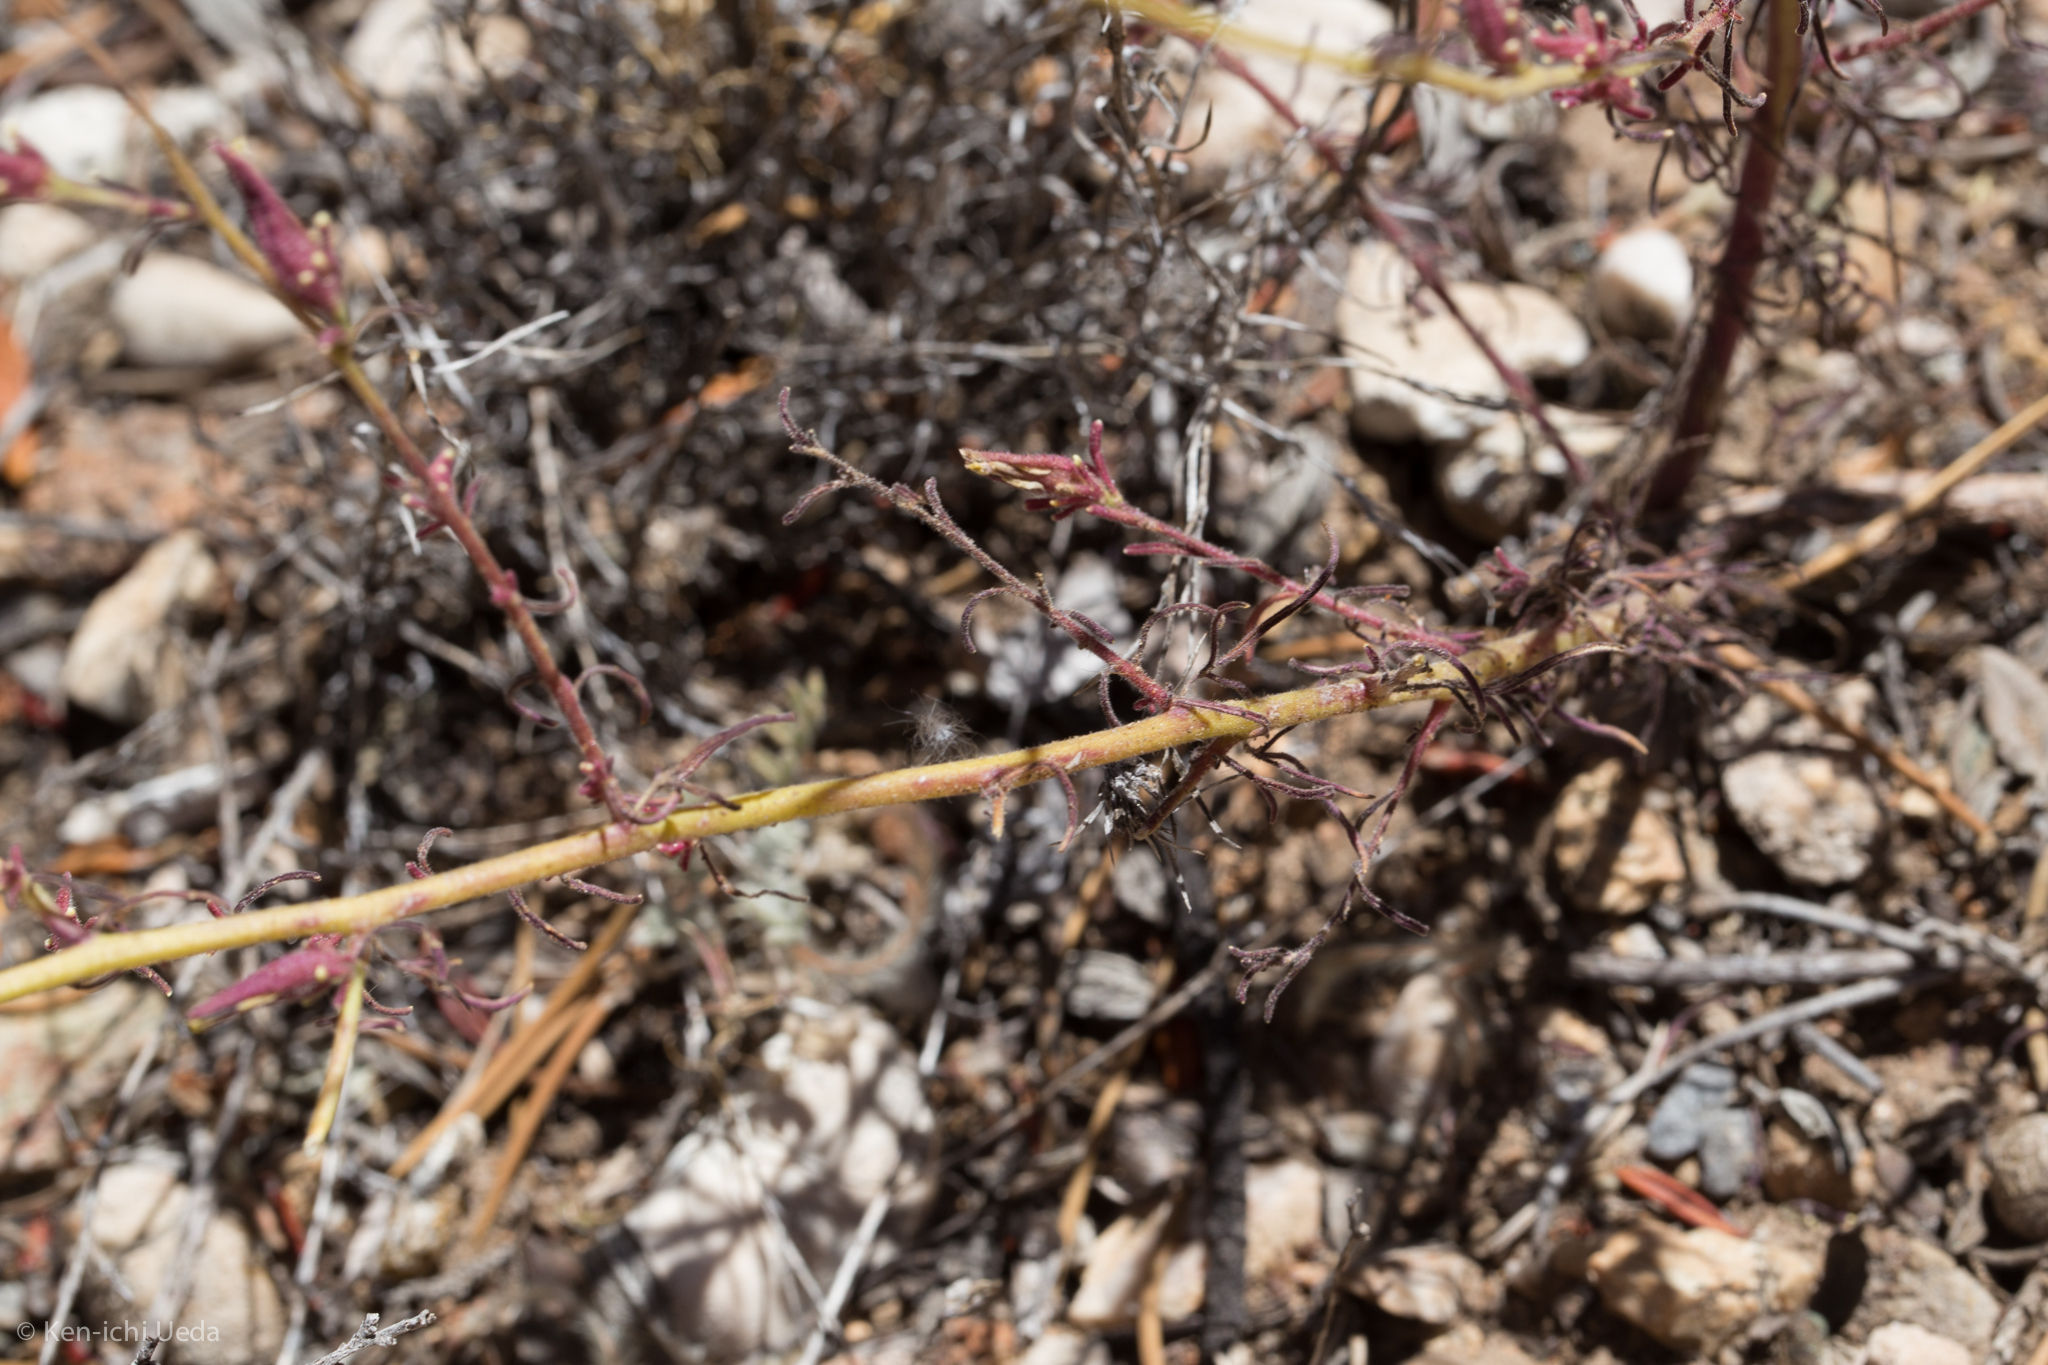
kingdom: Plantae
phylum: Tracheophyta
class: Magnoliopsida
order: Lamiales
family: Orobanchaceae
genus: Cordylanthus
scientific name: Cordylanthus nevinii
